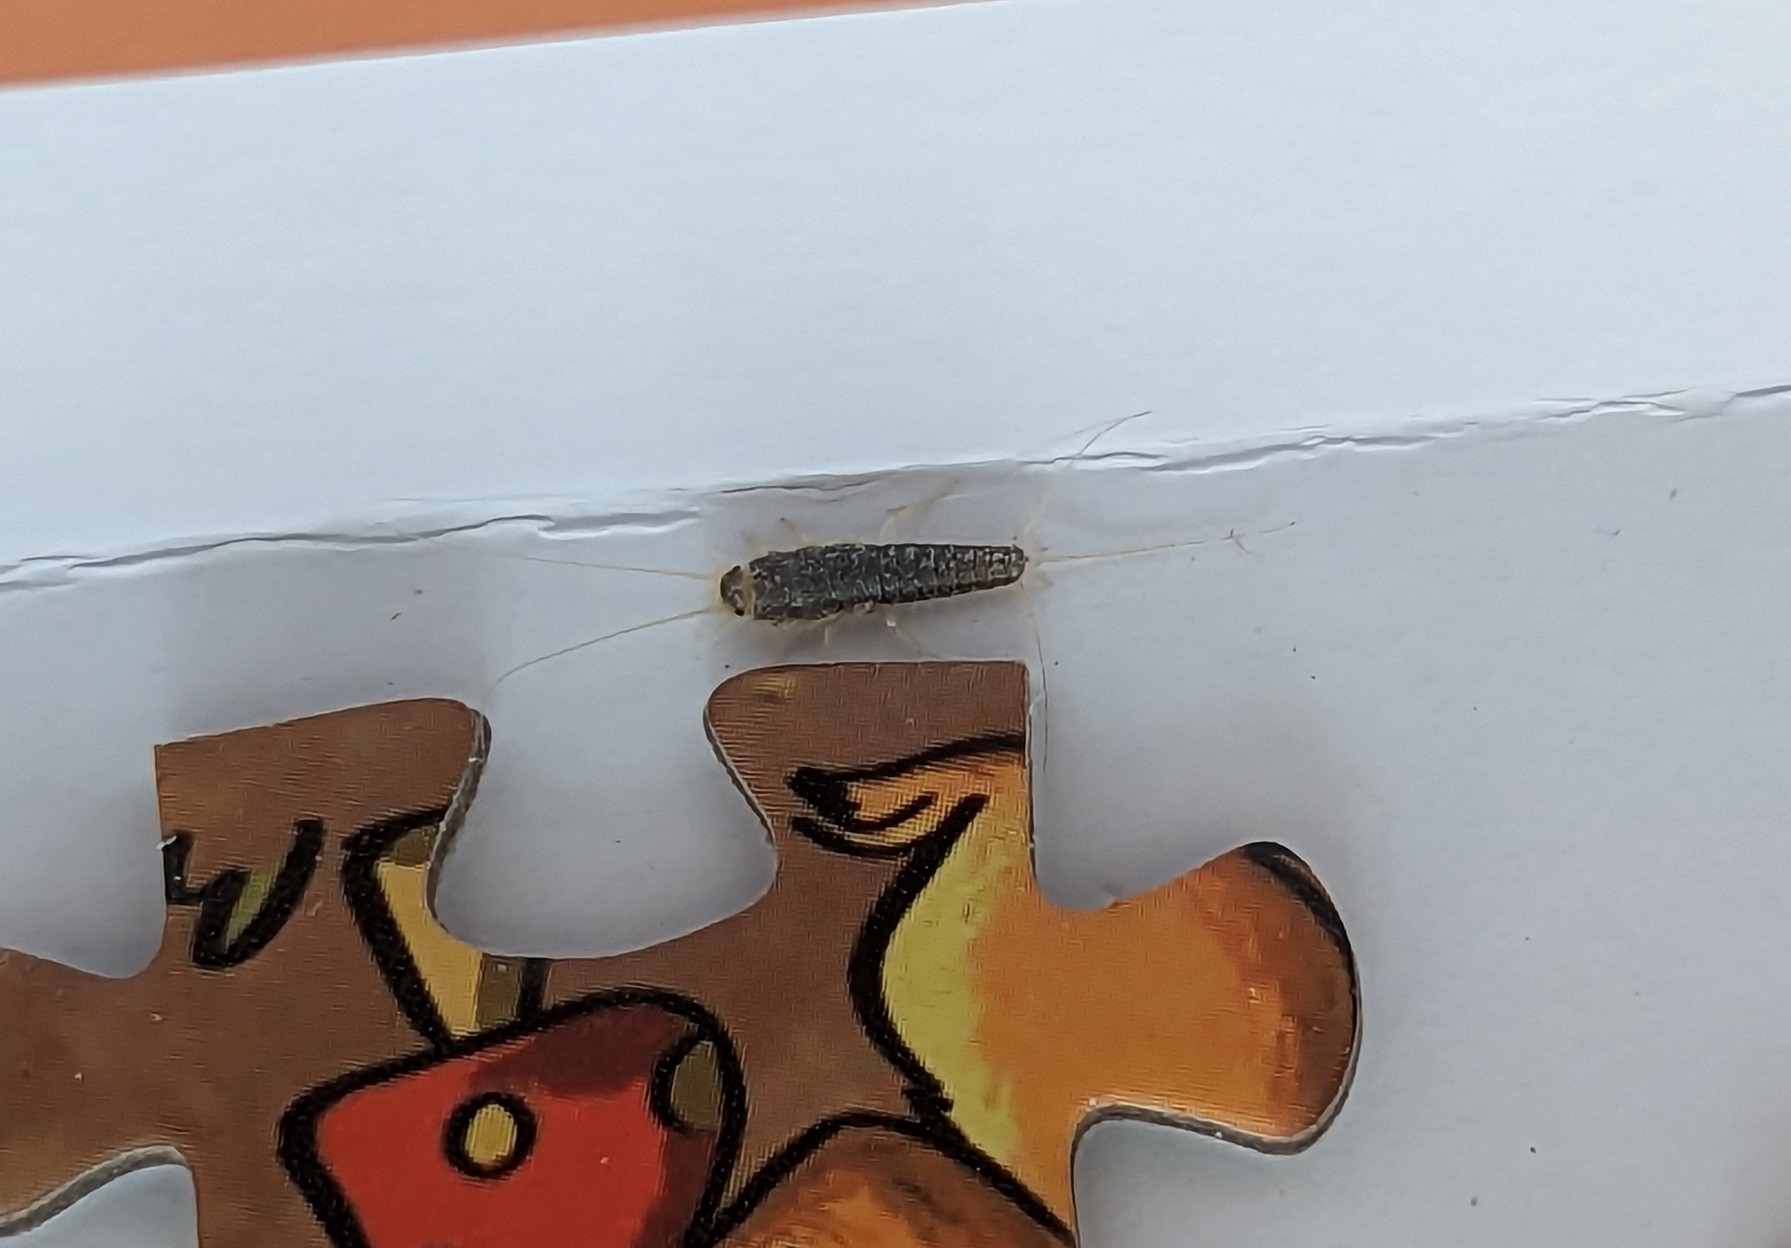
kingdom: Animalia
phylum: Arthropoda
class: Insecta
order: Zygentoma
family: Lepismatidae
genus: Ctenolepisma
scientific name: Ctenolepisma longicaudatum
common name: Silverfish
